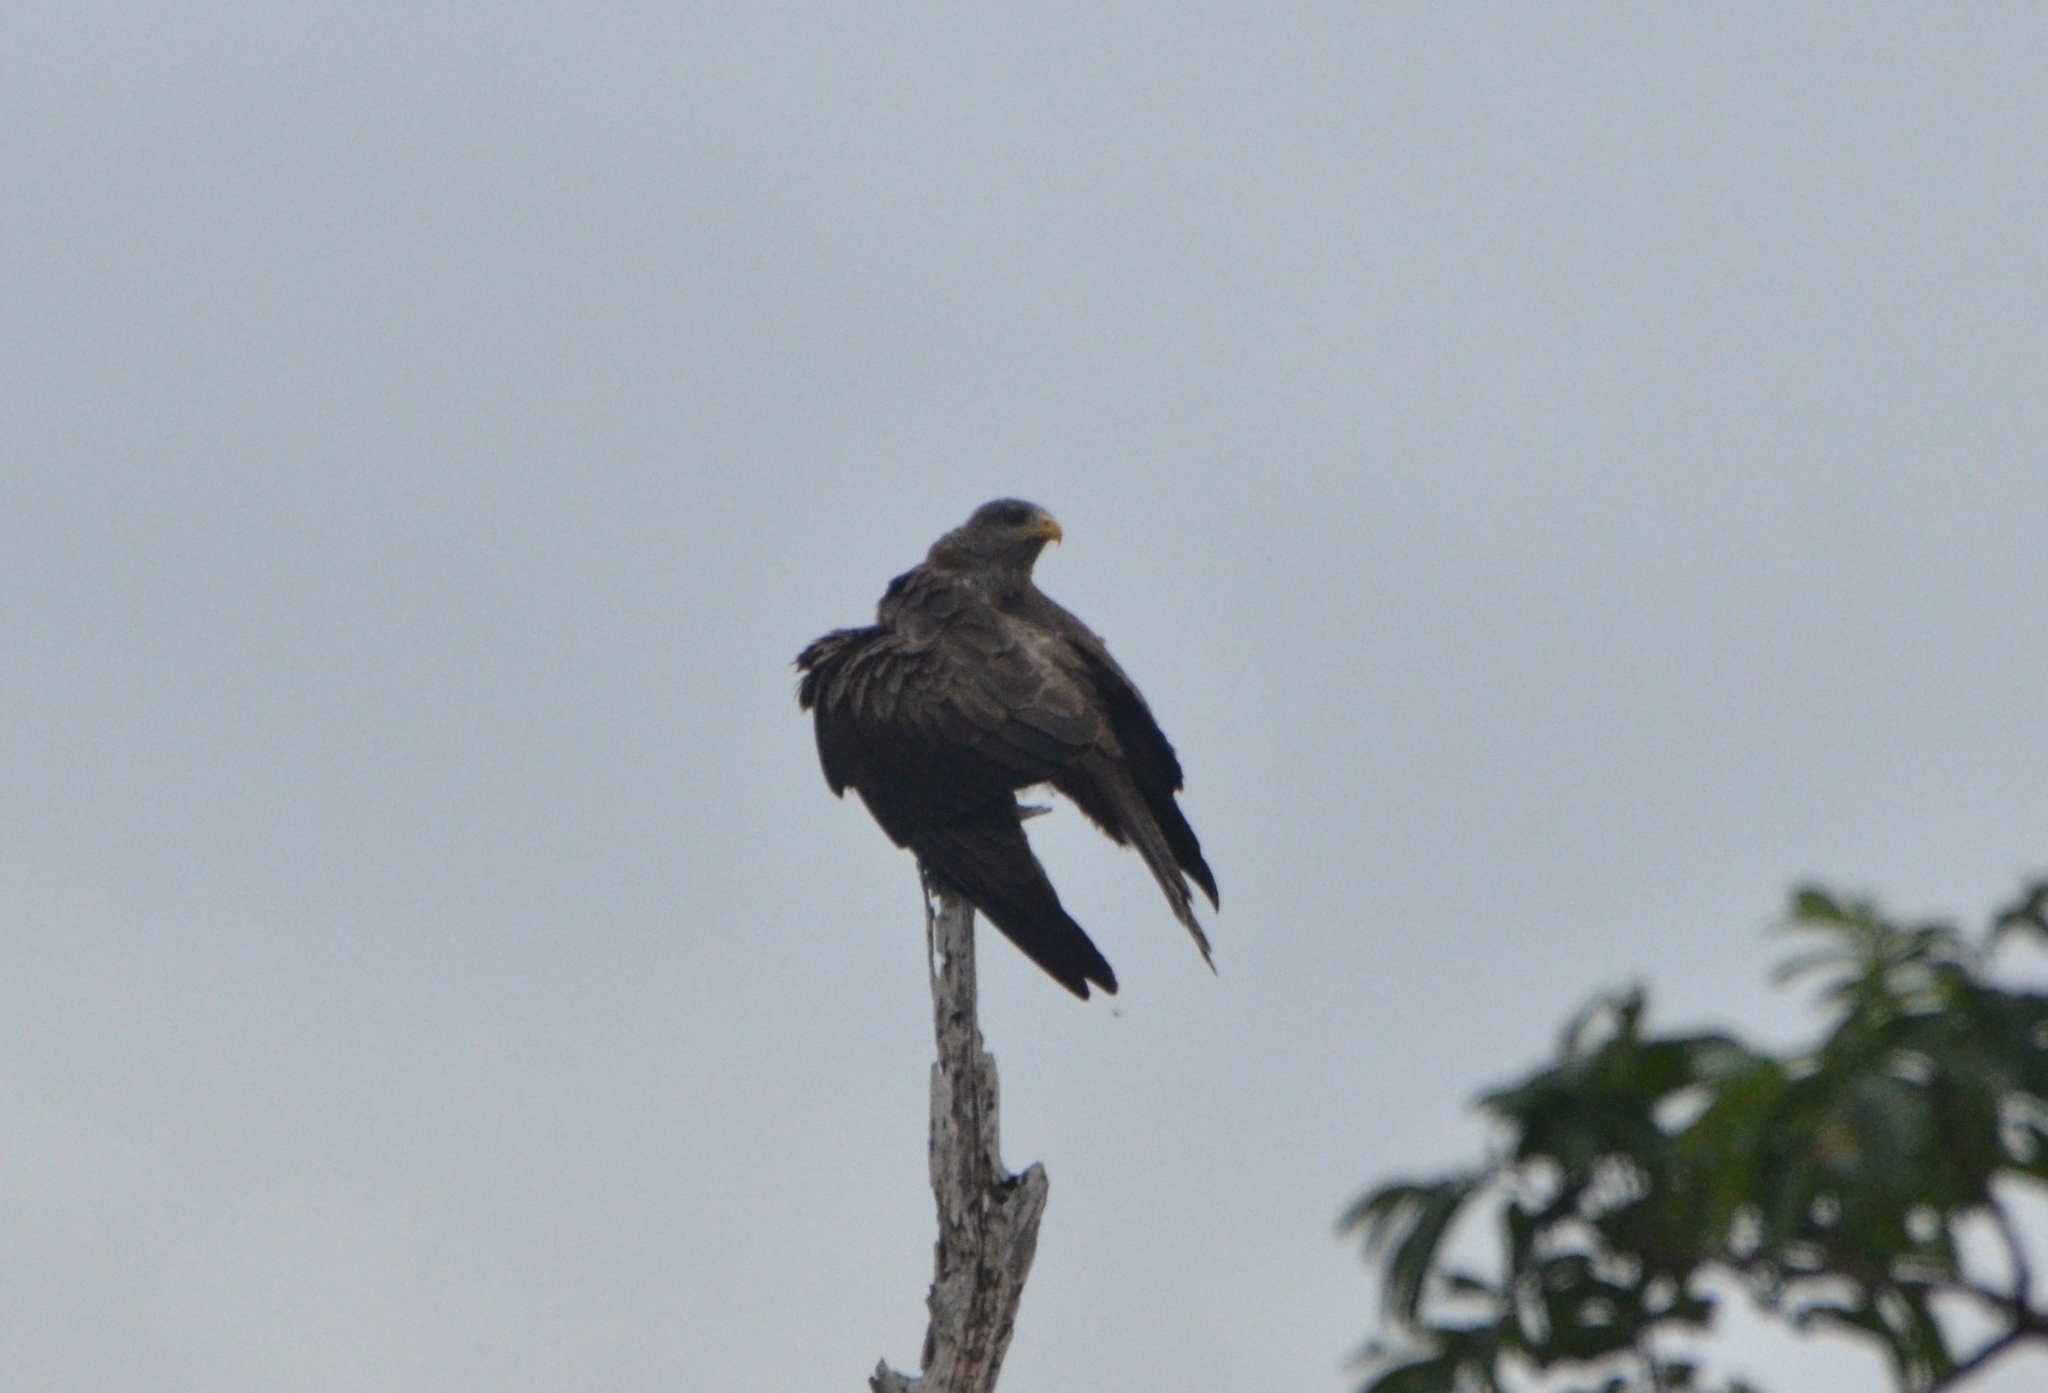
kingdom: Animalia
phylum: Chordata
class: Aves
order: Accipitriformes
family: Accipitridae
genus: Milvus
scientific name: Milvus migrans
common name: Black kite
